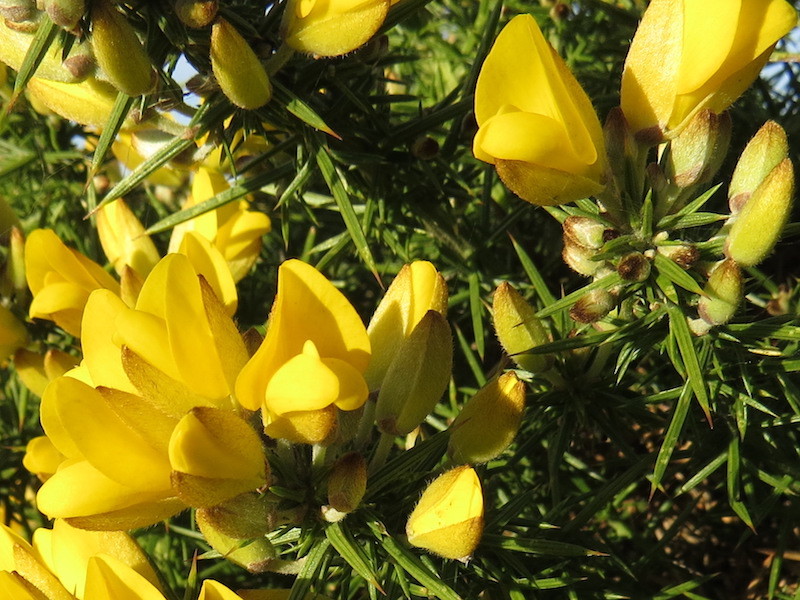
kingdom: Plantae
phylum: Tracheophyta
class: Magnoliopsida
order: Fabales
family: Fabaceae
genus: Ulex
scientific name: Ulex europaeus
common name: Common gorse
